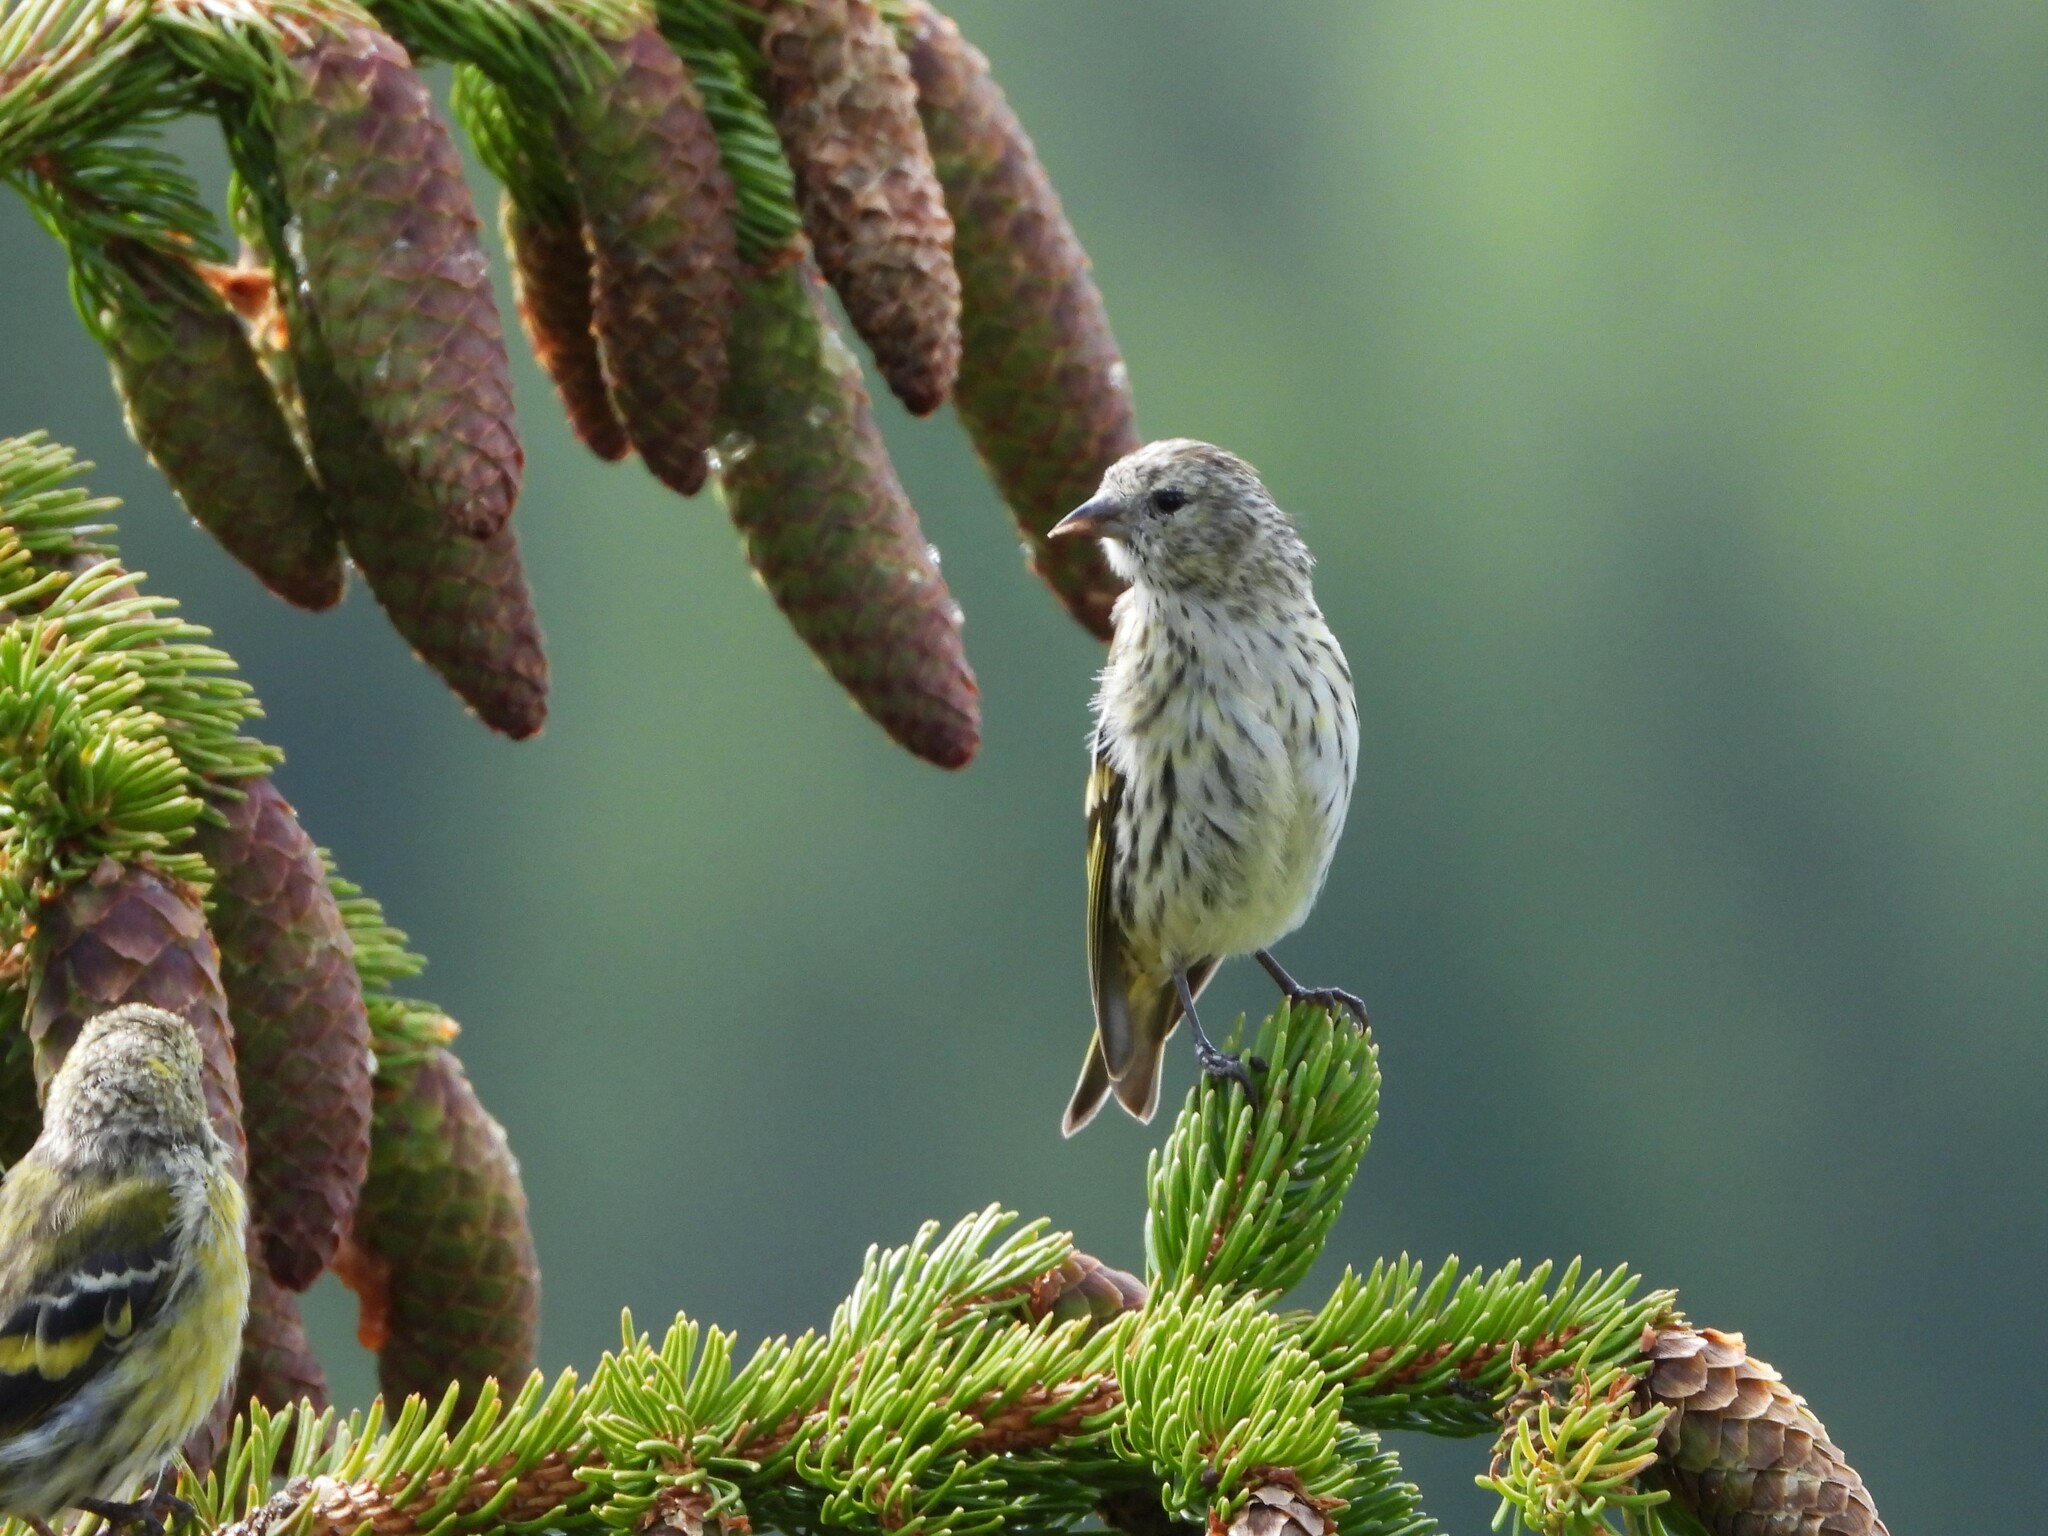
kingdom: Animalia
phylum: Chordata
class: Aves
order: Passeriformes
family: Fringillidae
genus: Spinus
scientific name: Spinus spinus
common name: Eurasian siskin
